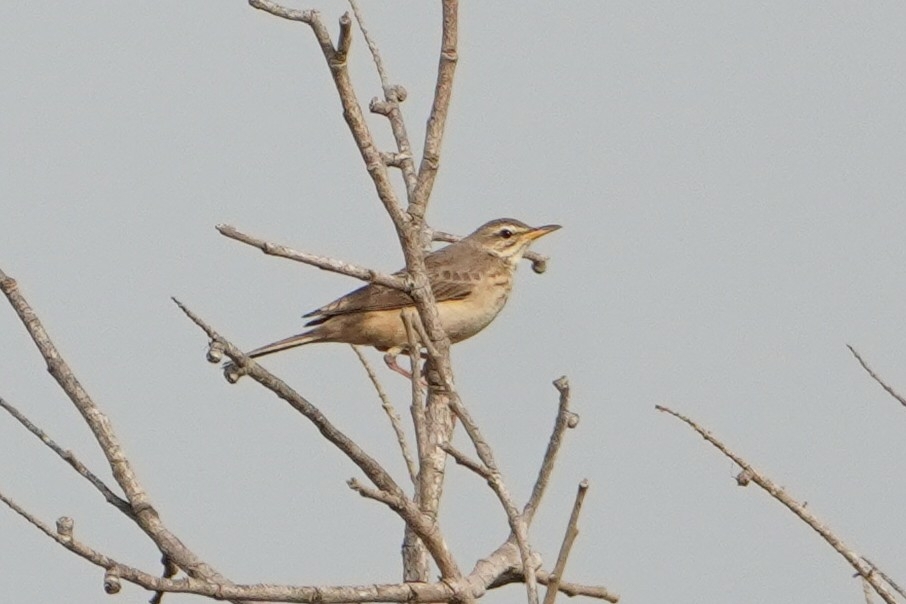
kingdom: Animalia
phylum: Chordata
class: Aves
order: Passeriformes
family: Motacillidae
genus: Anthus
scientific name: Anthus leucophrys
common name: Plain-backed pipit
